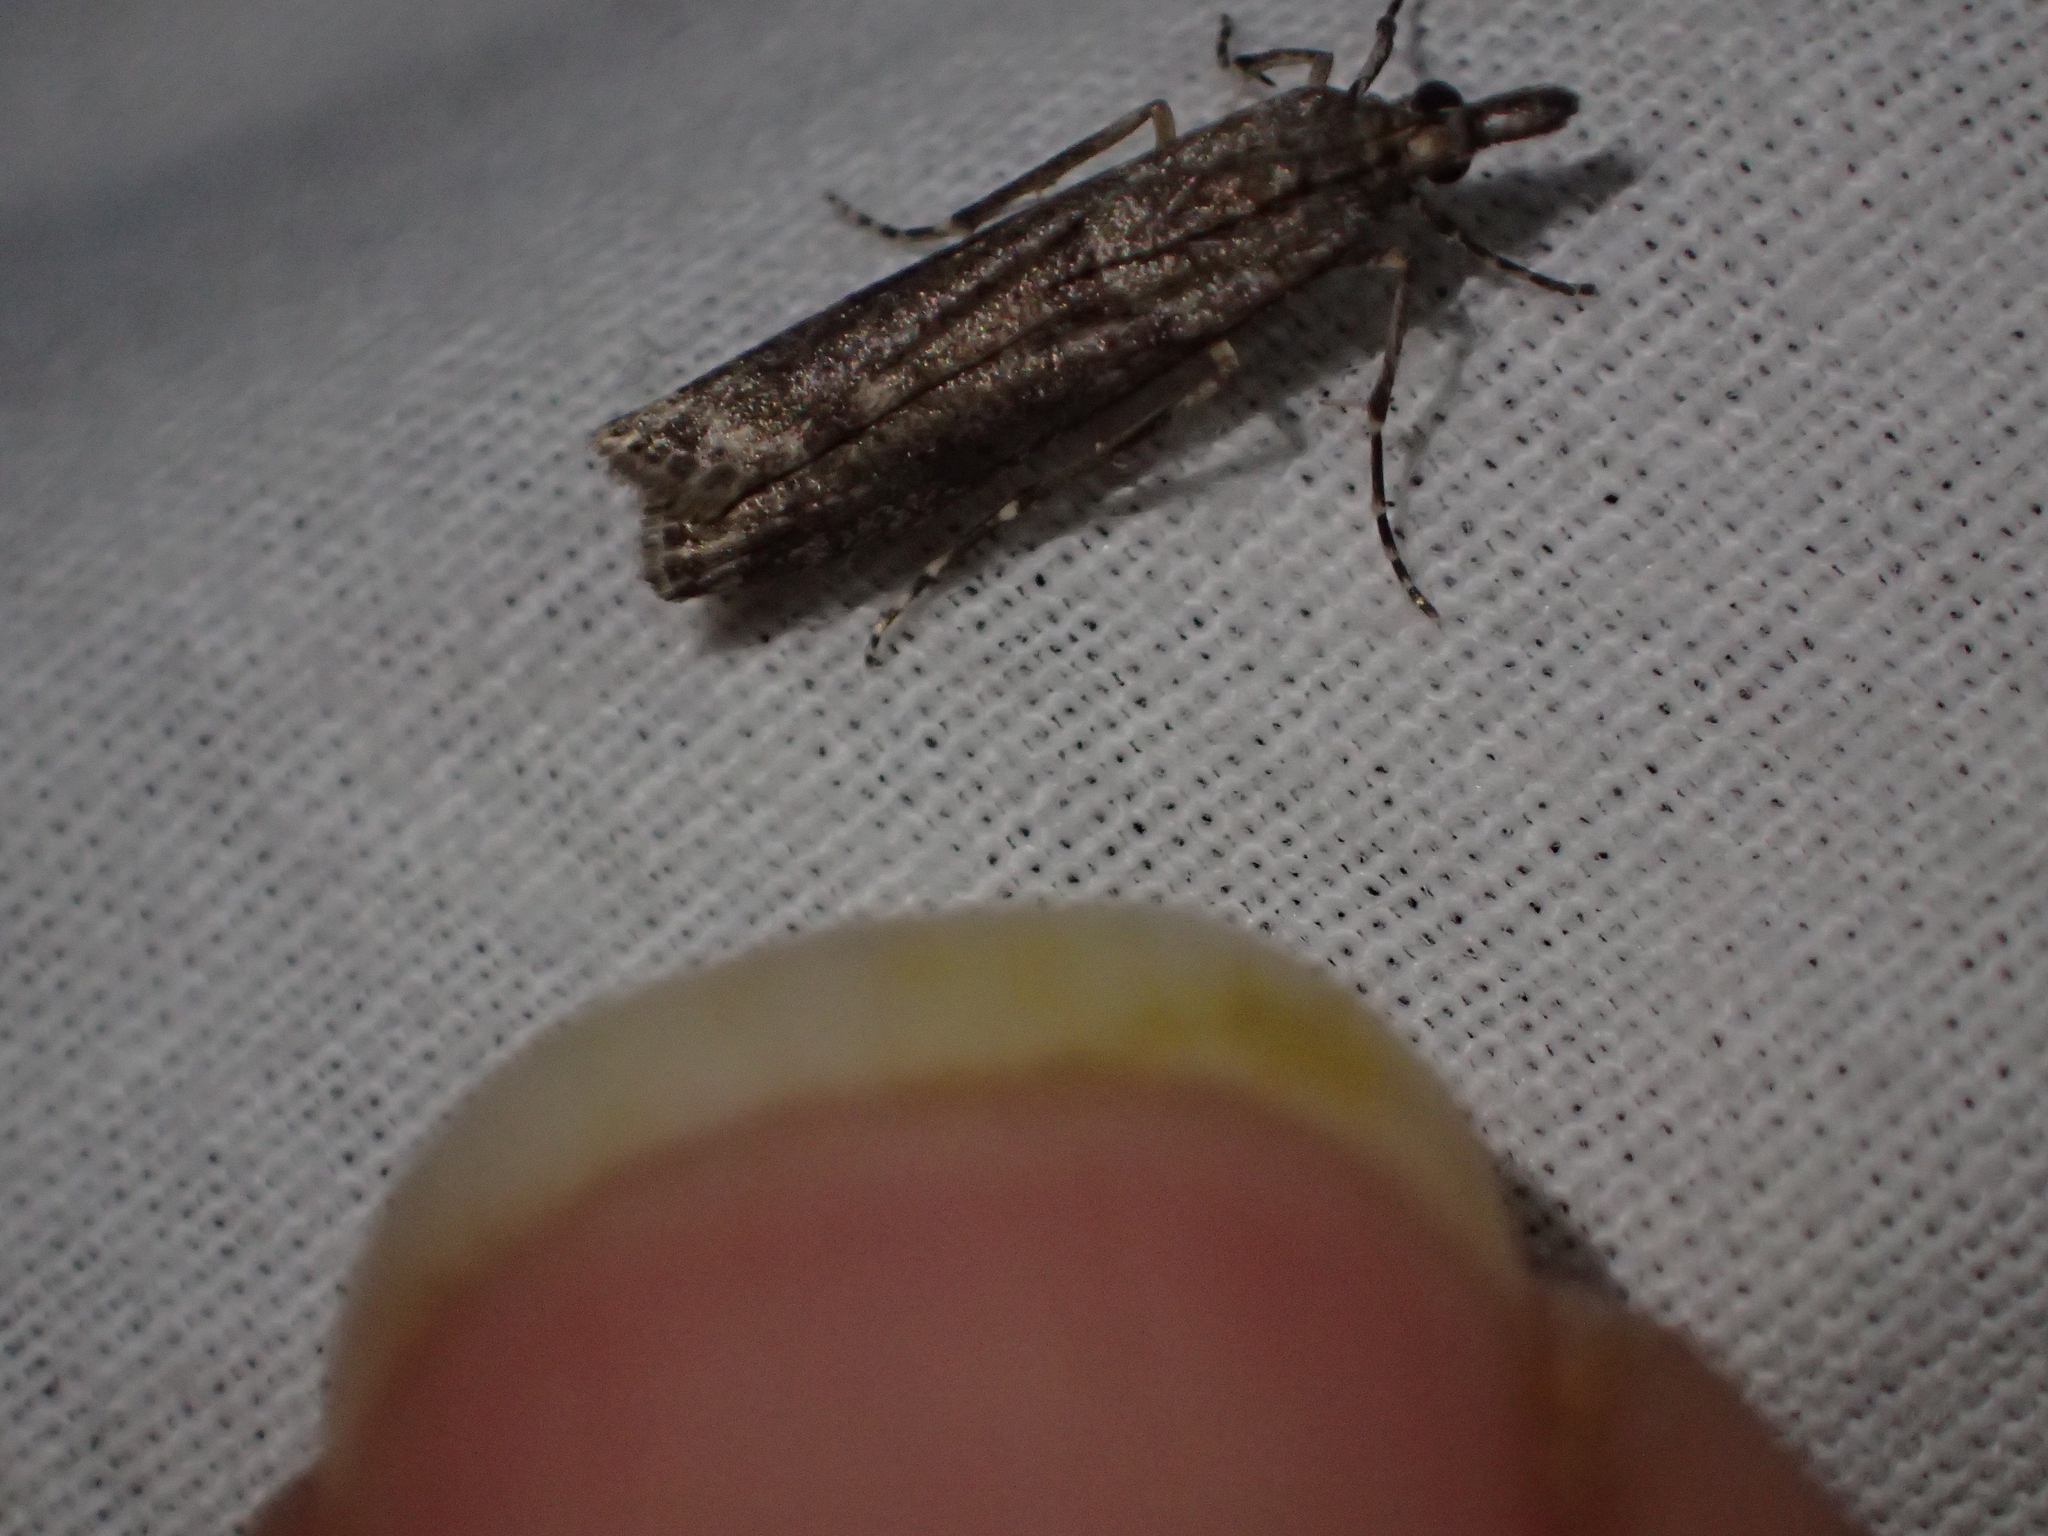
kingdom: Animalia
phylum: Arthropoda
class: Insecta
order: Lepidoptera
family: Crambidae
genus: Eudonia
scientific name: Eudonia leptalea
